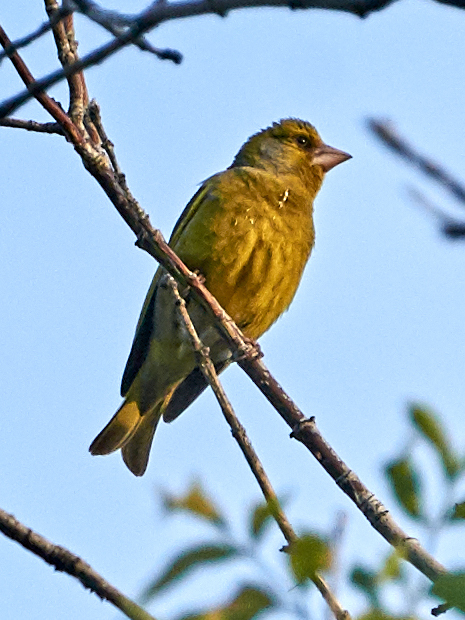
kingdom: Plantae
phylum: Tracheophyta
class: Liliopsida
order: Poales
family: Poaceae
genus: Chloris
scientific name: Chloris chloris
